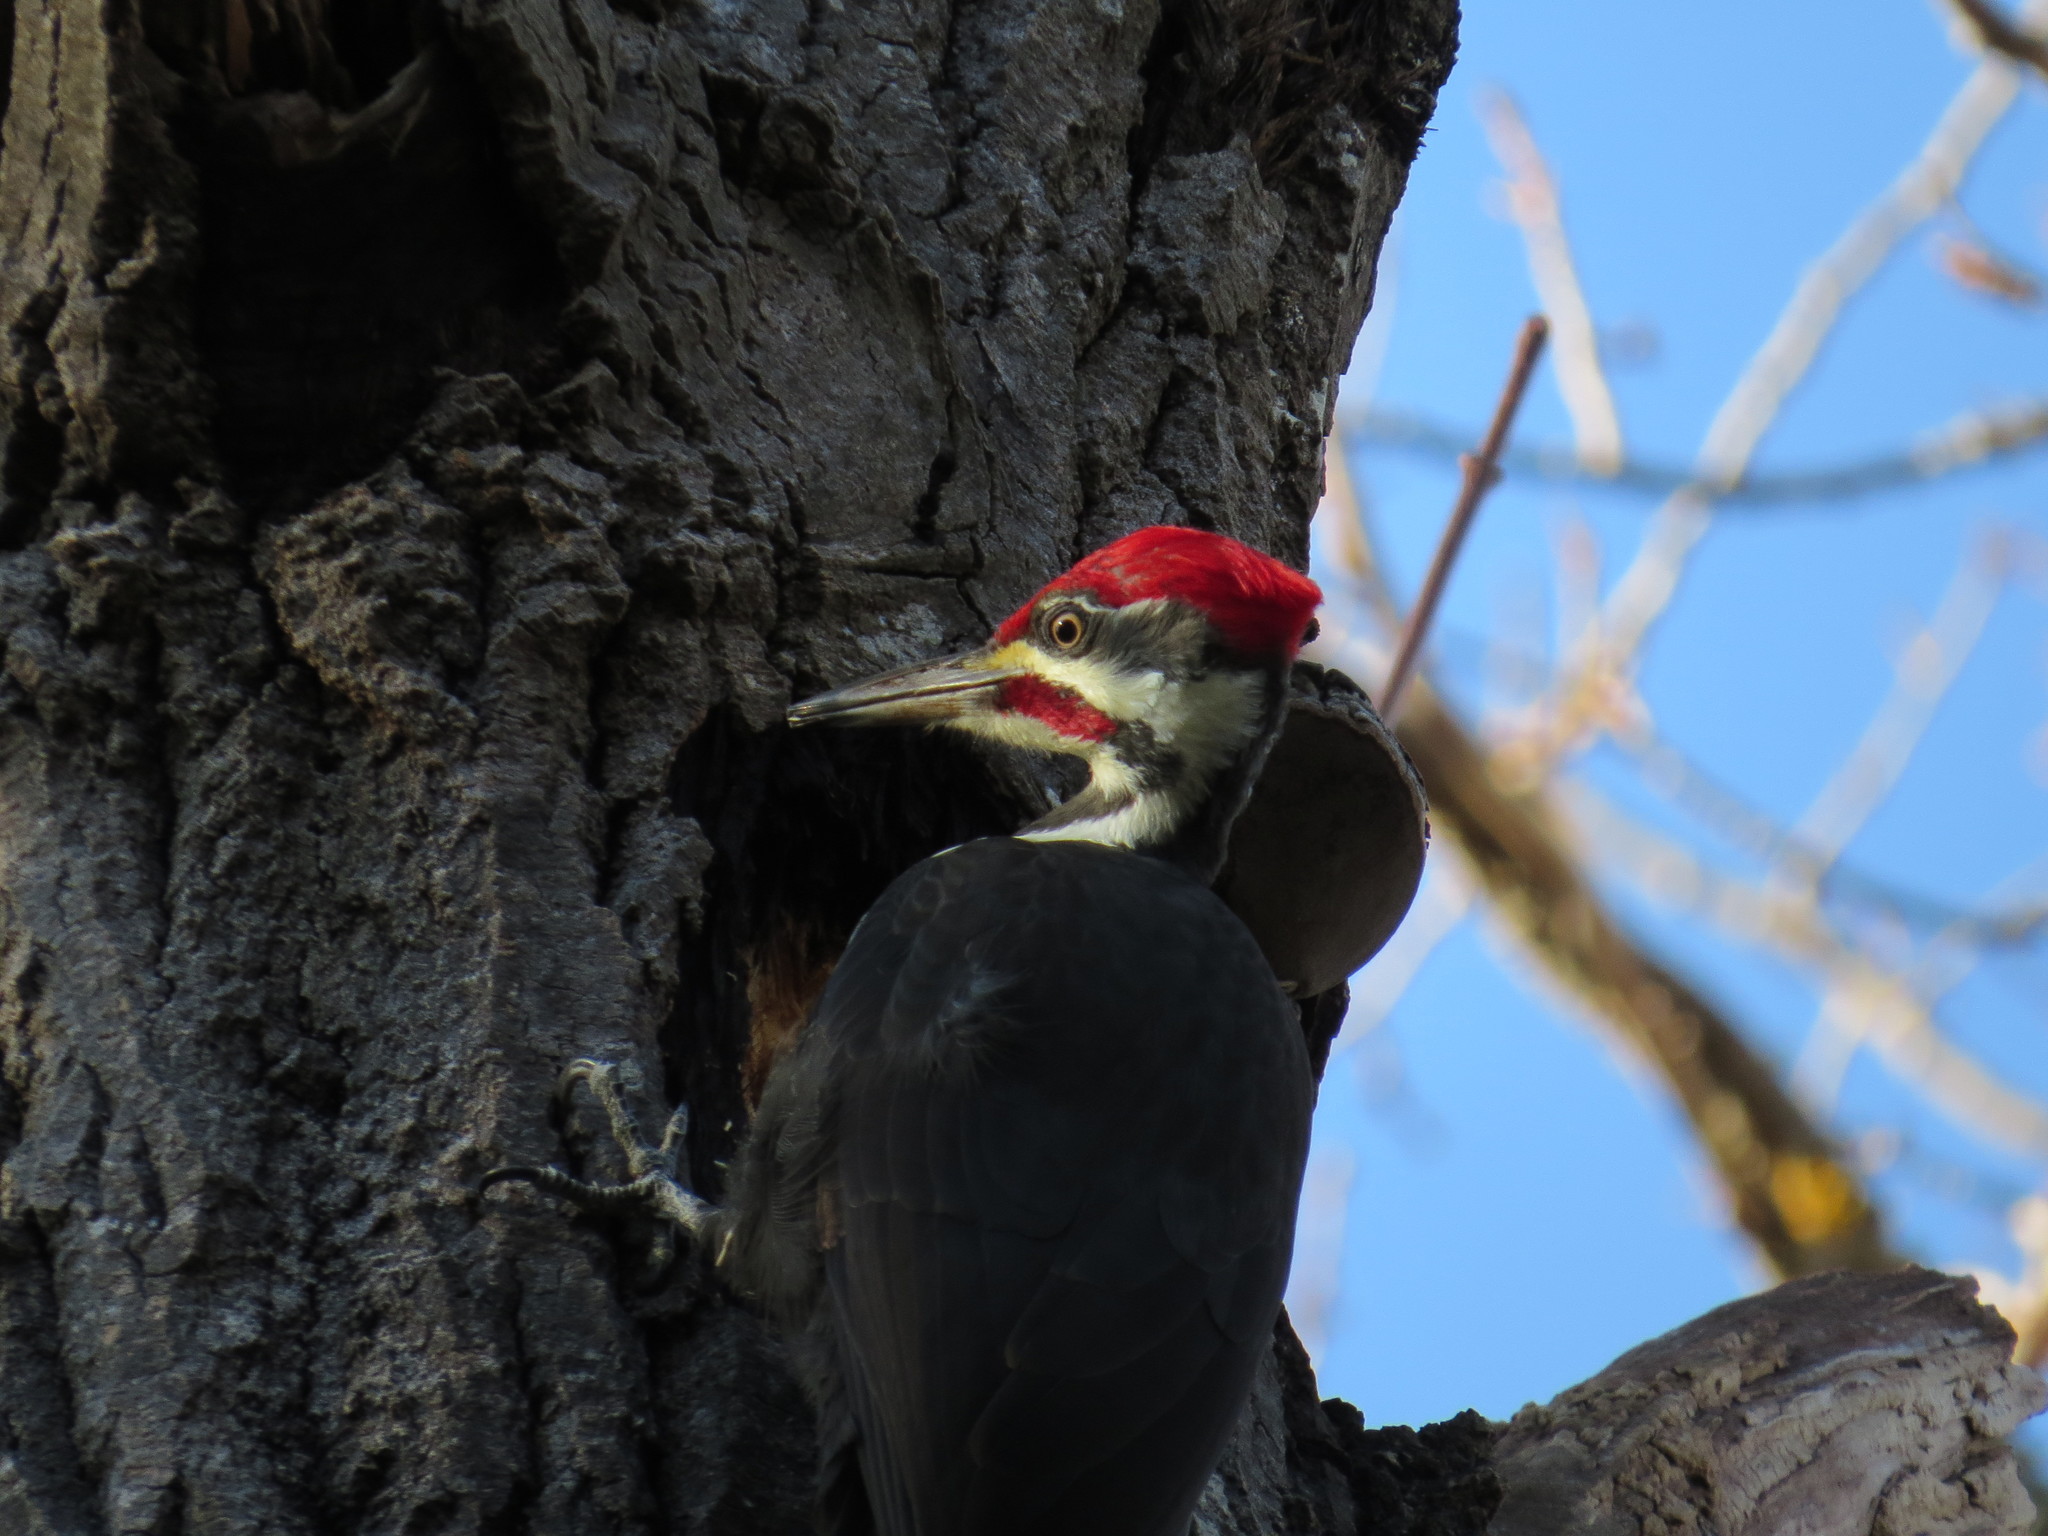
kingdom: Animalia
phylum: Chordata
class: Aves
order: Piciformes
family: Picidae
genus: Dryocopus
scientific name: Dryocopus pileatus
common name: Pileated woodpecker
